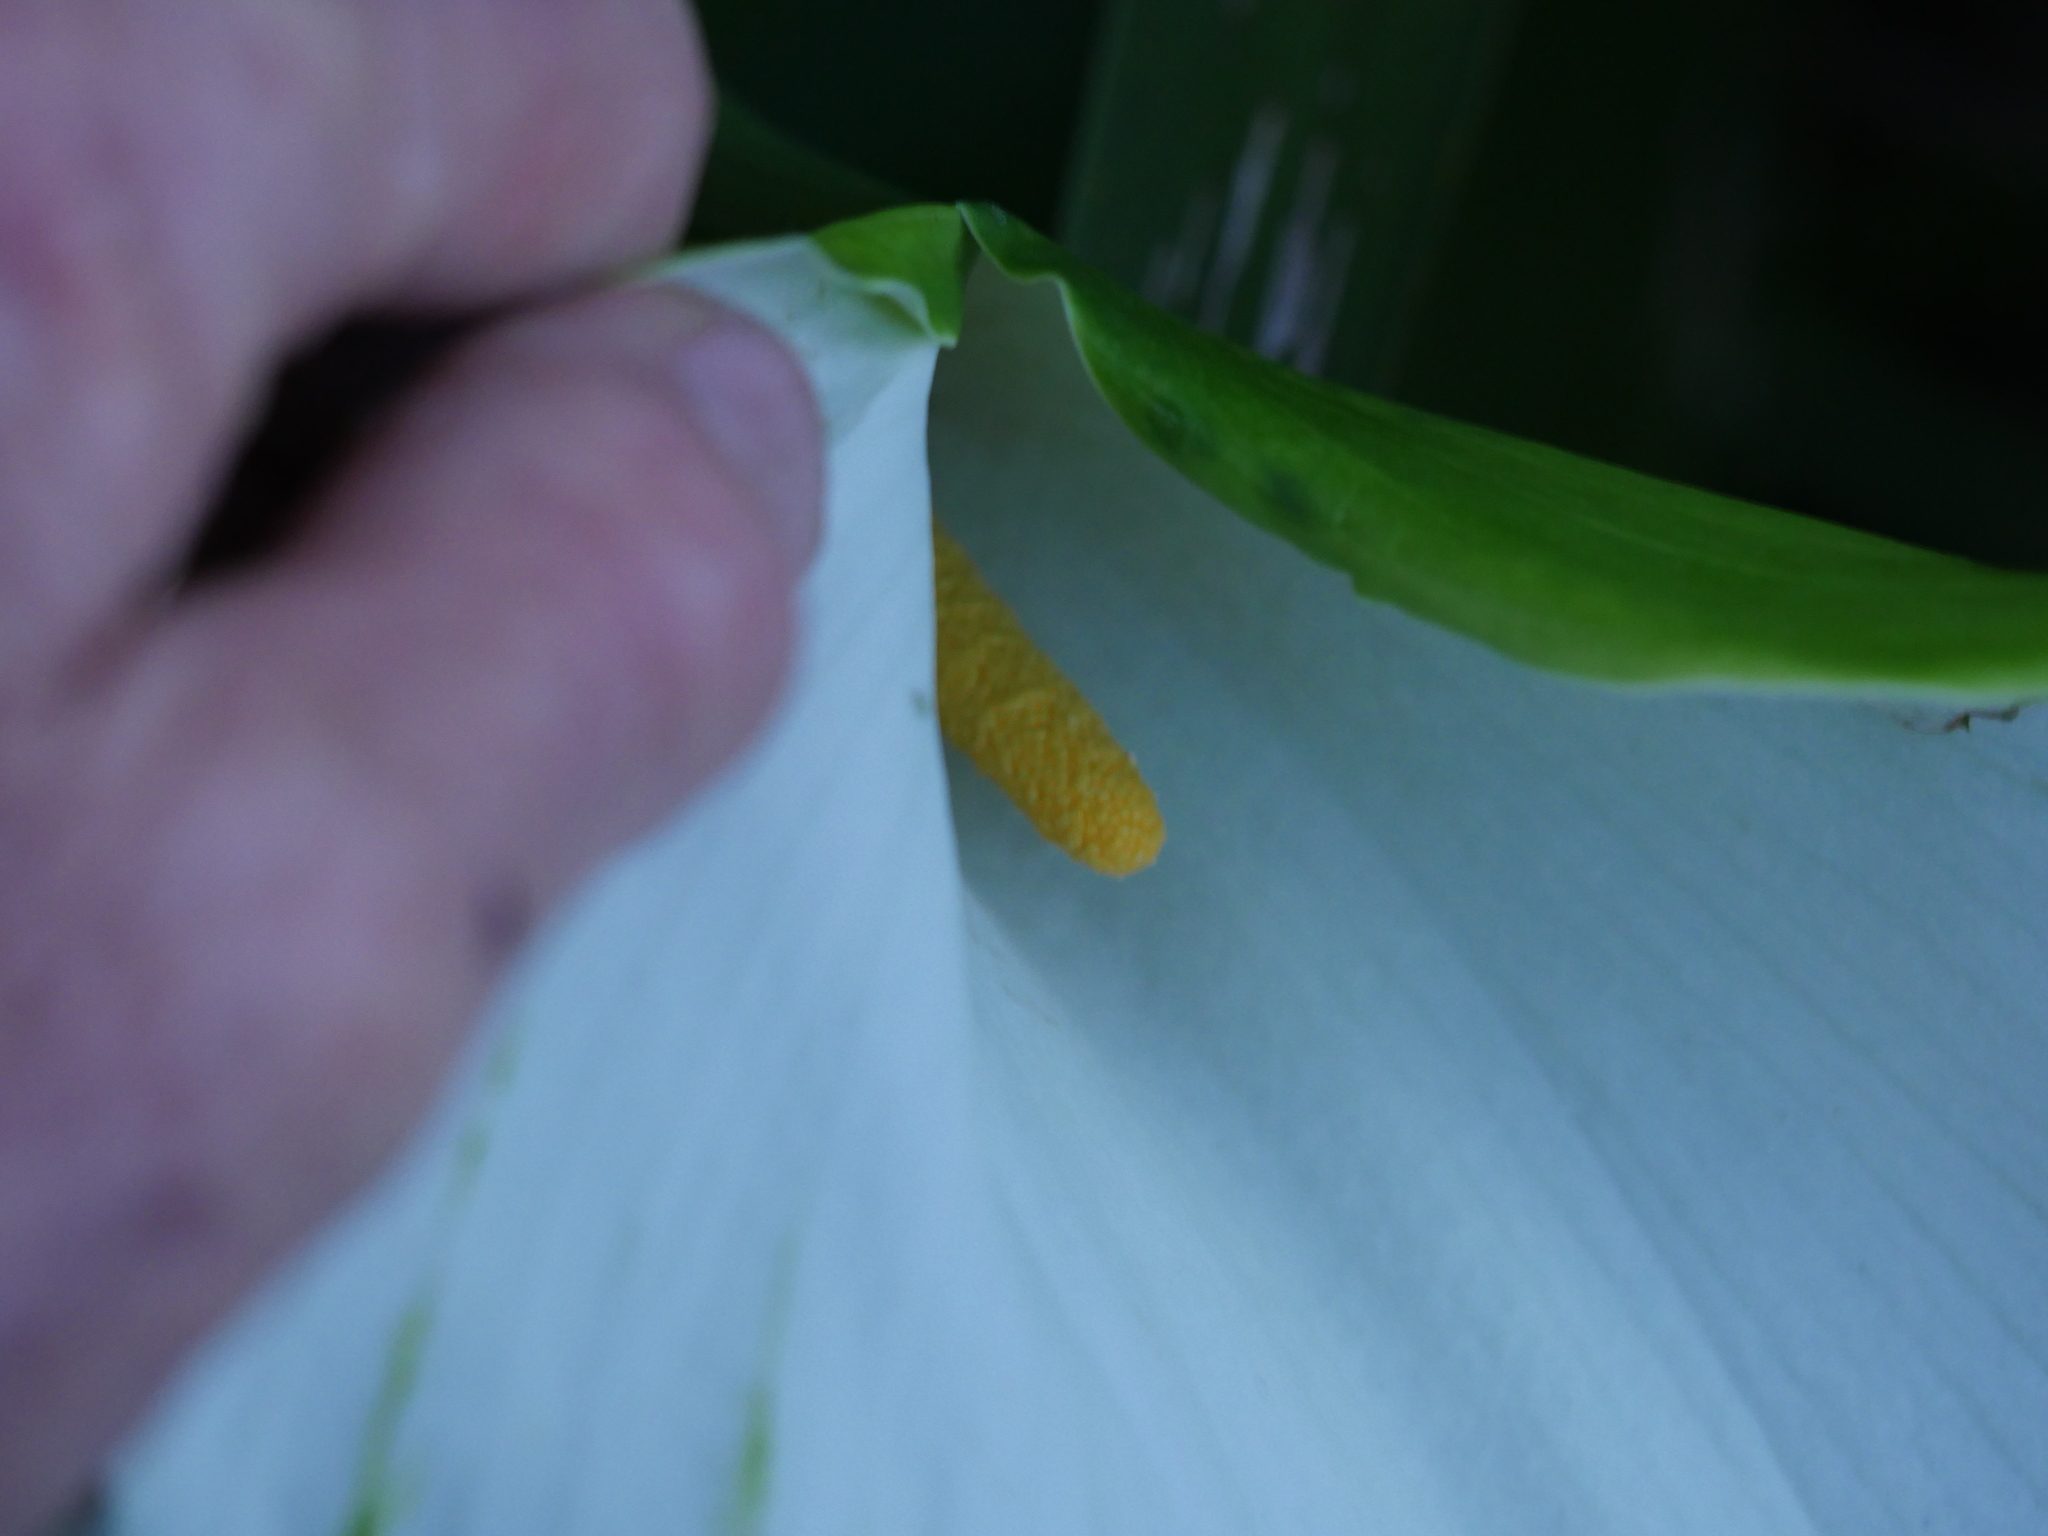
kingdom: Plantae
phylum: Tracheophyta
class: Liliopsida
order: Alismatales
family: Araceae
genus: Zantedeschia
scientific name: Zantedeschia aethiopica
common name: Altar-lily
